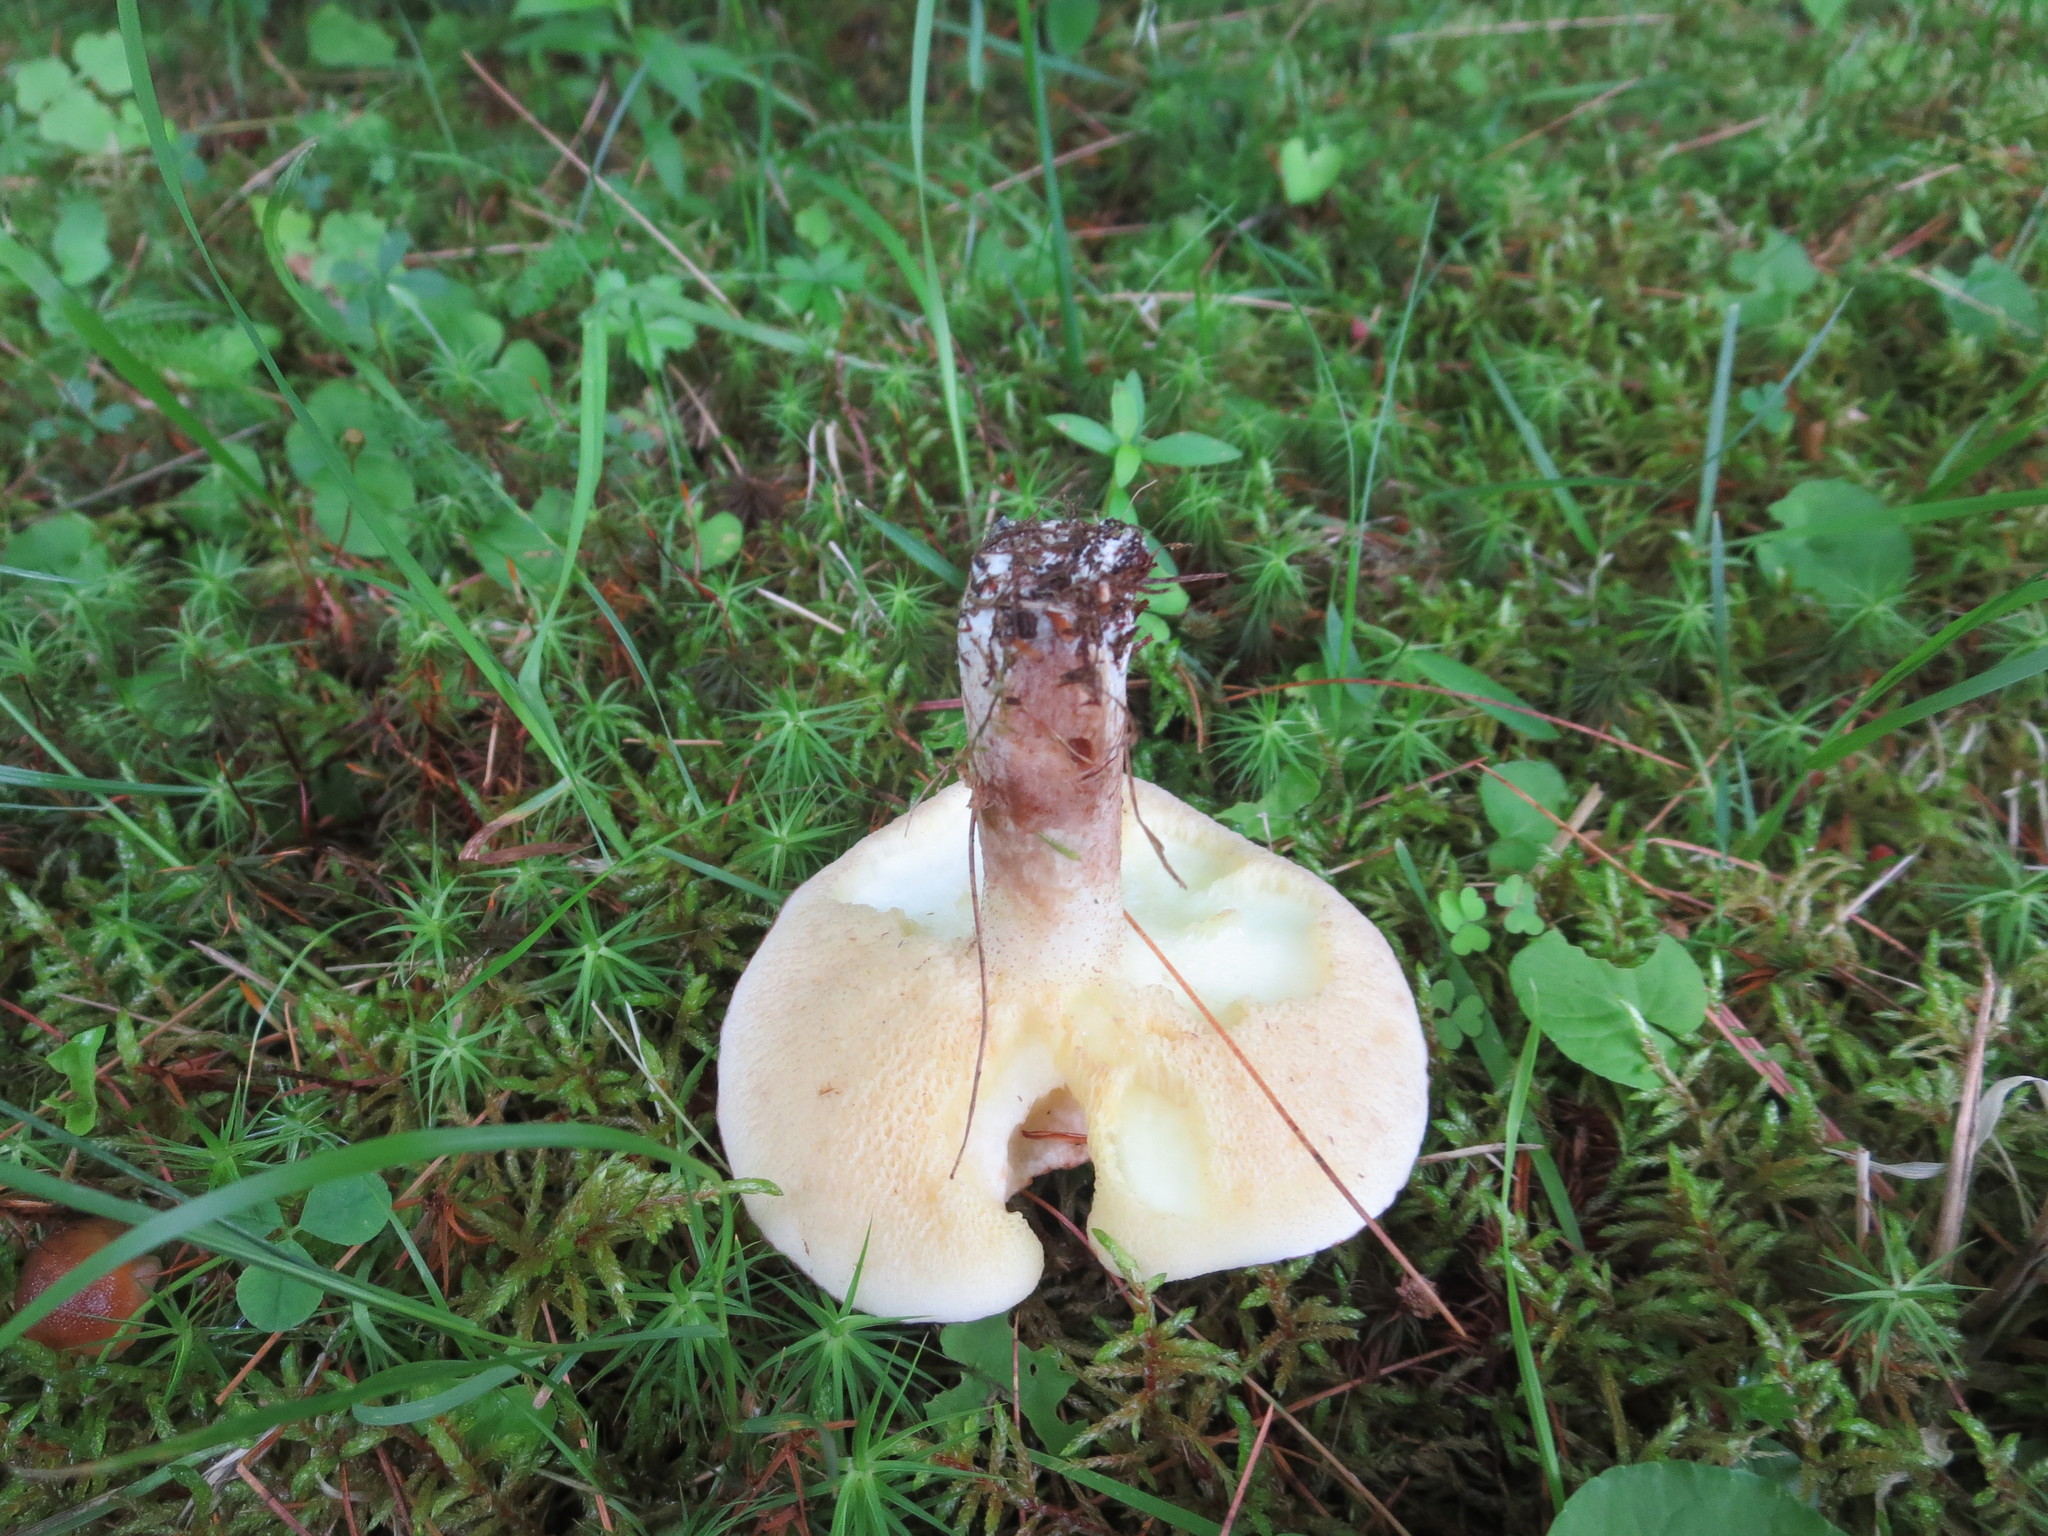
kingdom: Fungi
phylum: Basidiomycota
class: Agaricomycetes
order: Boletales
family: Suillaceae
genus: Suillus
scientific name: Suillus placidus
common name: Slippery white bolete
